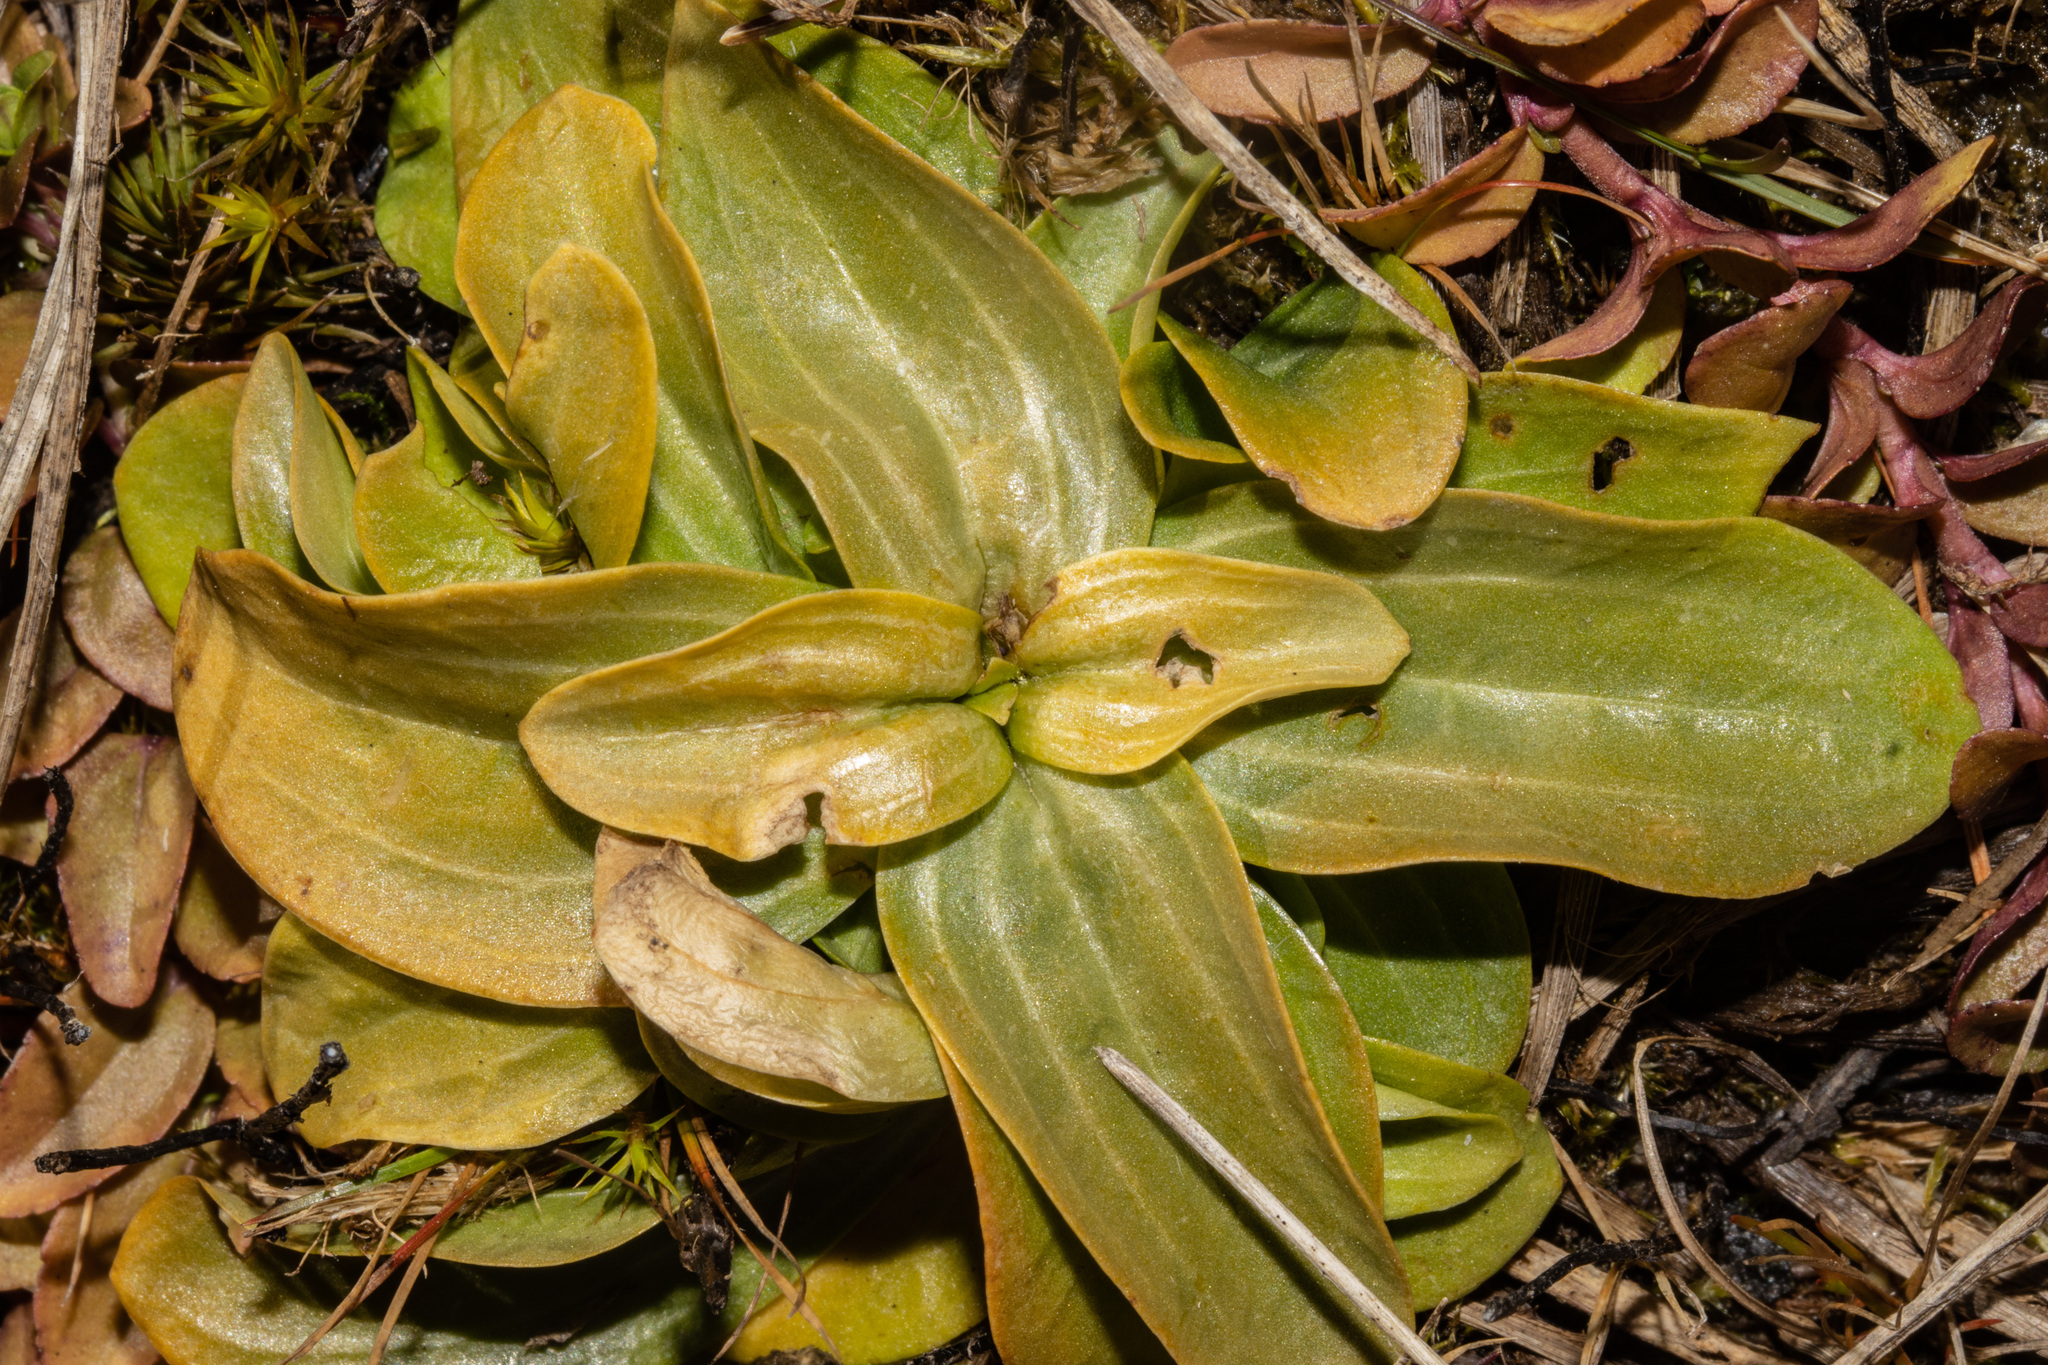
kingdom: Plantae
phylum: Tracheophyta
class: Magnoliopsida
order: Gentianales
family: Gentianaceae
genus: Centaurium
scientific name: Centaurium erythraea
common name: Common centaury
